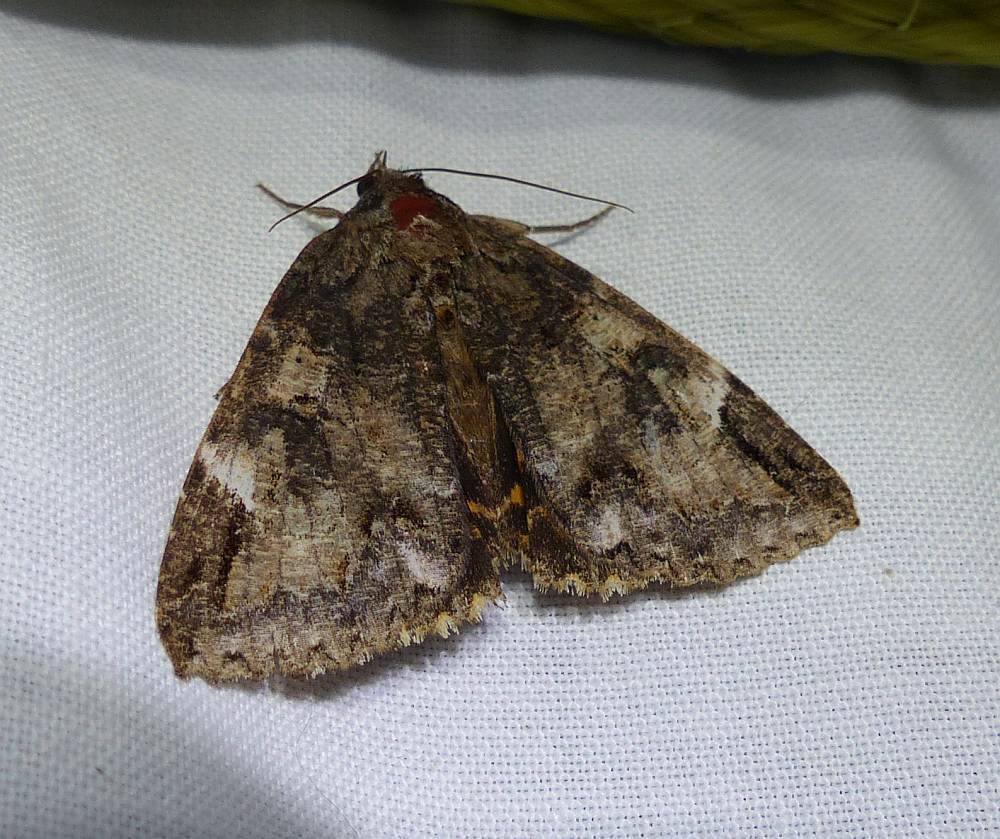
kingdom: Animalia
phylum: Arthropoda
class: Insecta
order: Lepidoptera
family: Erebidae
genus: Euparthenos
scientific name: Euparthenos nubilis
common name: Locust underwing
